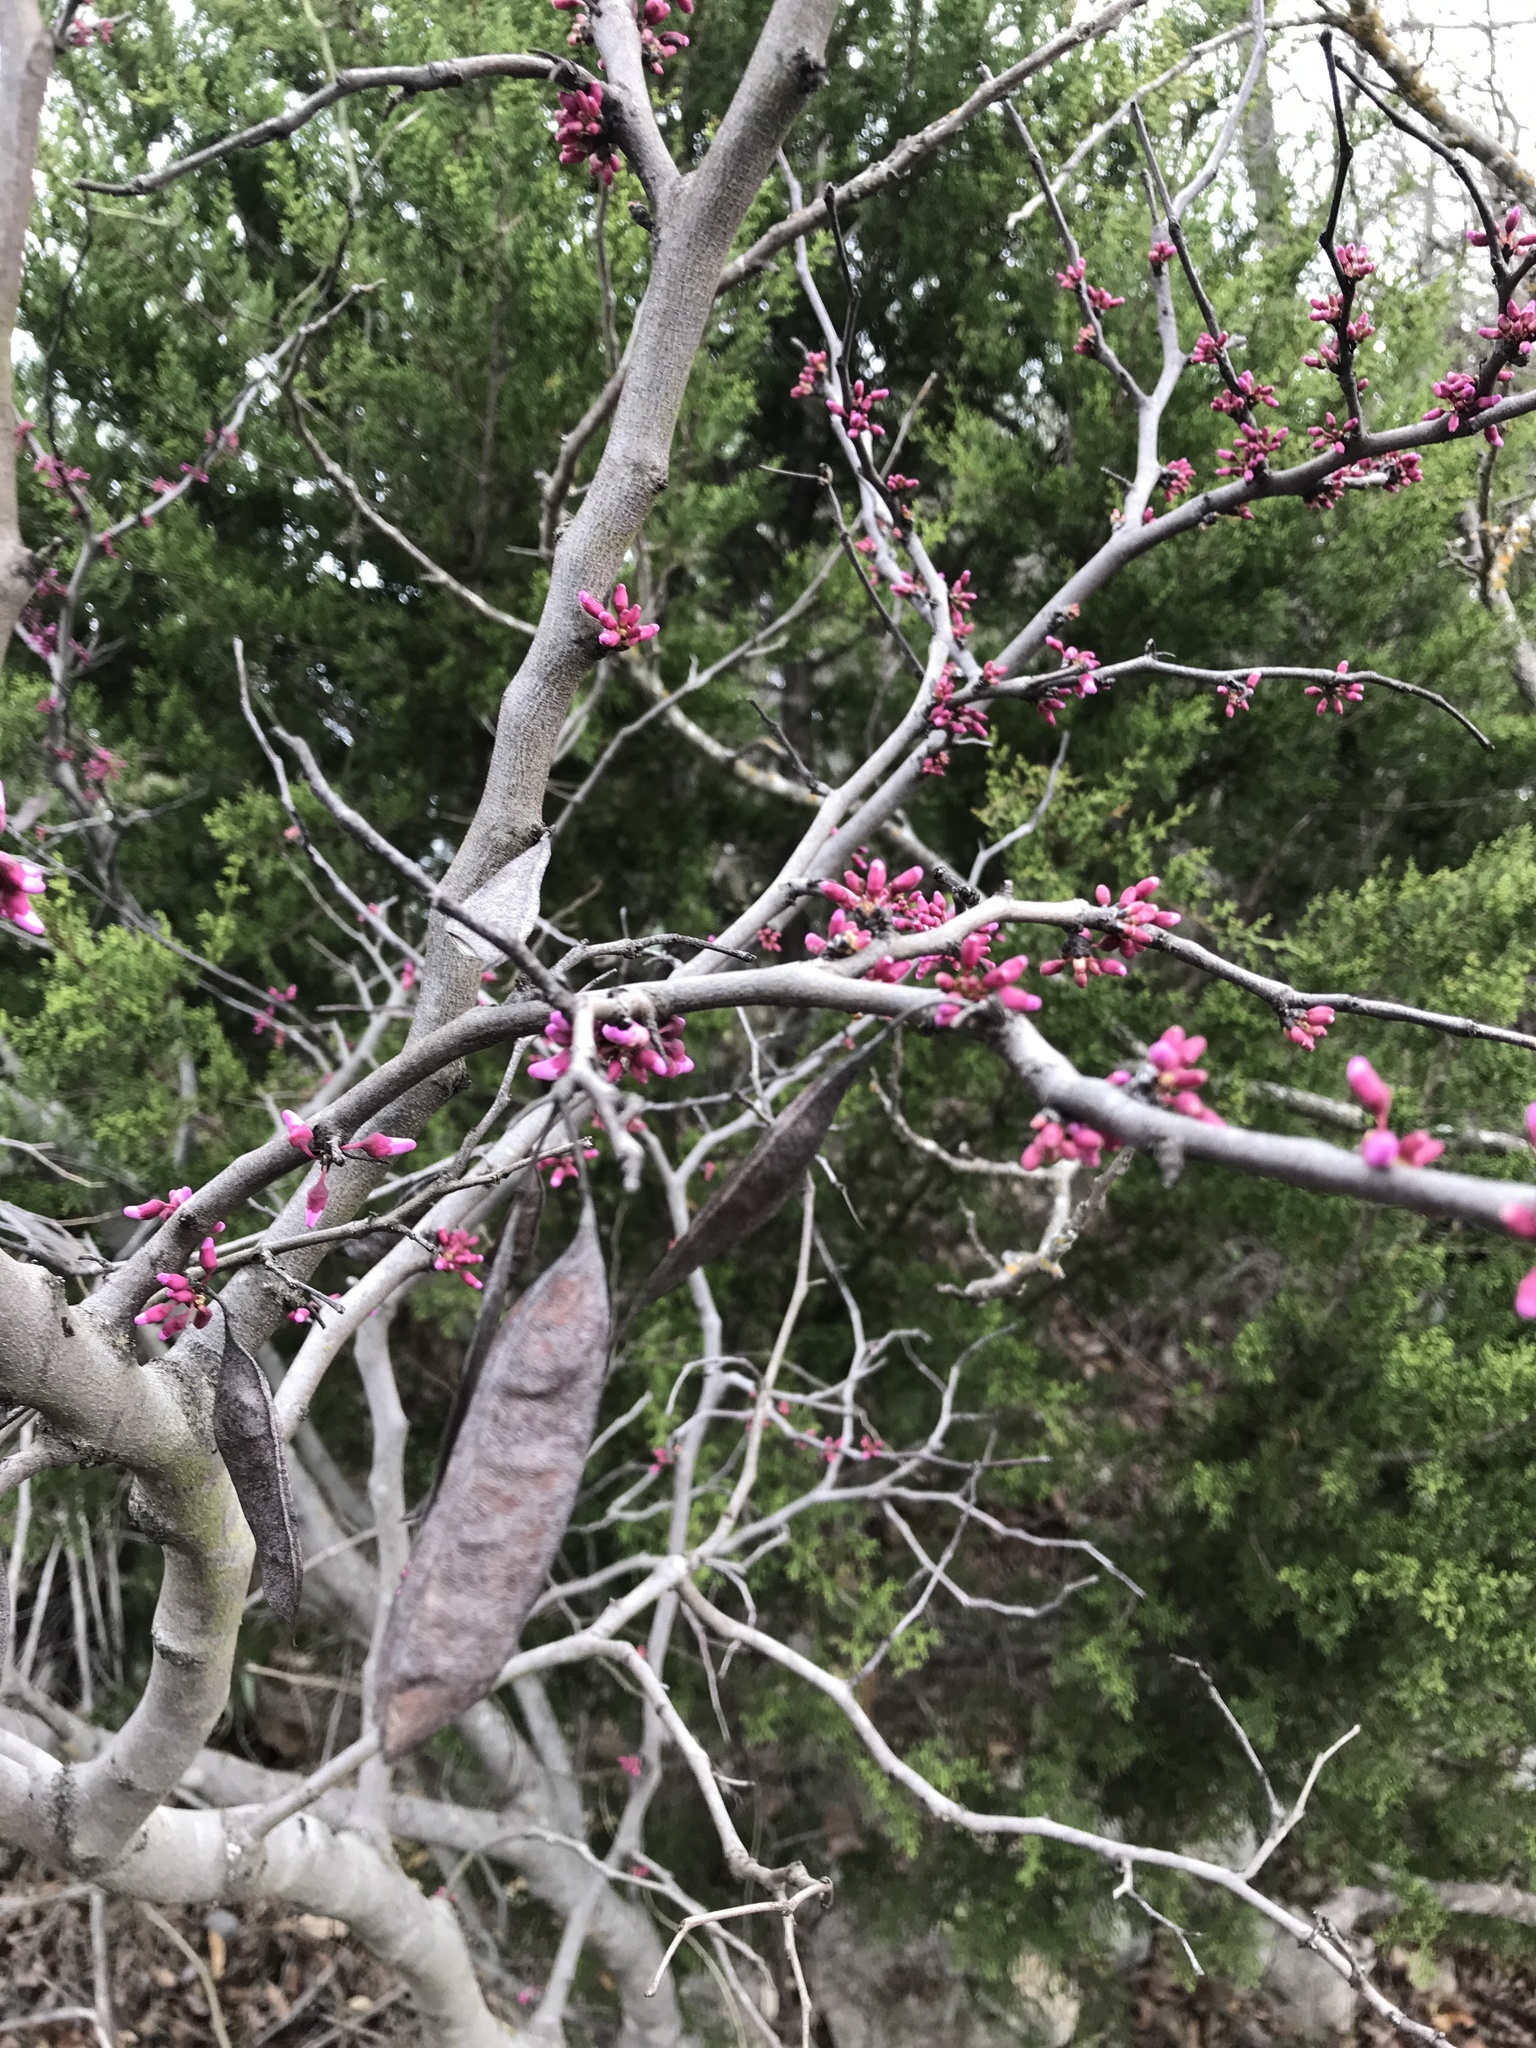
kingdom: Plantae
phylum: Tracheophyta
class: Magnoliopsida
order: Fabales
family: Fabaceae
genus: Cercis
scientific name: Cercis canadensis
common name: Eastern redbud
